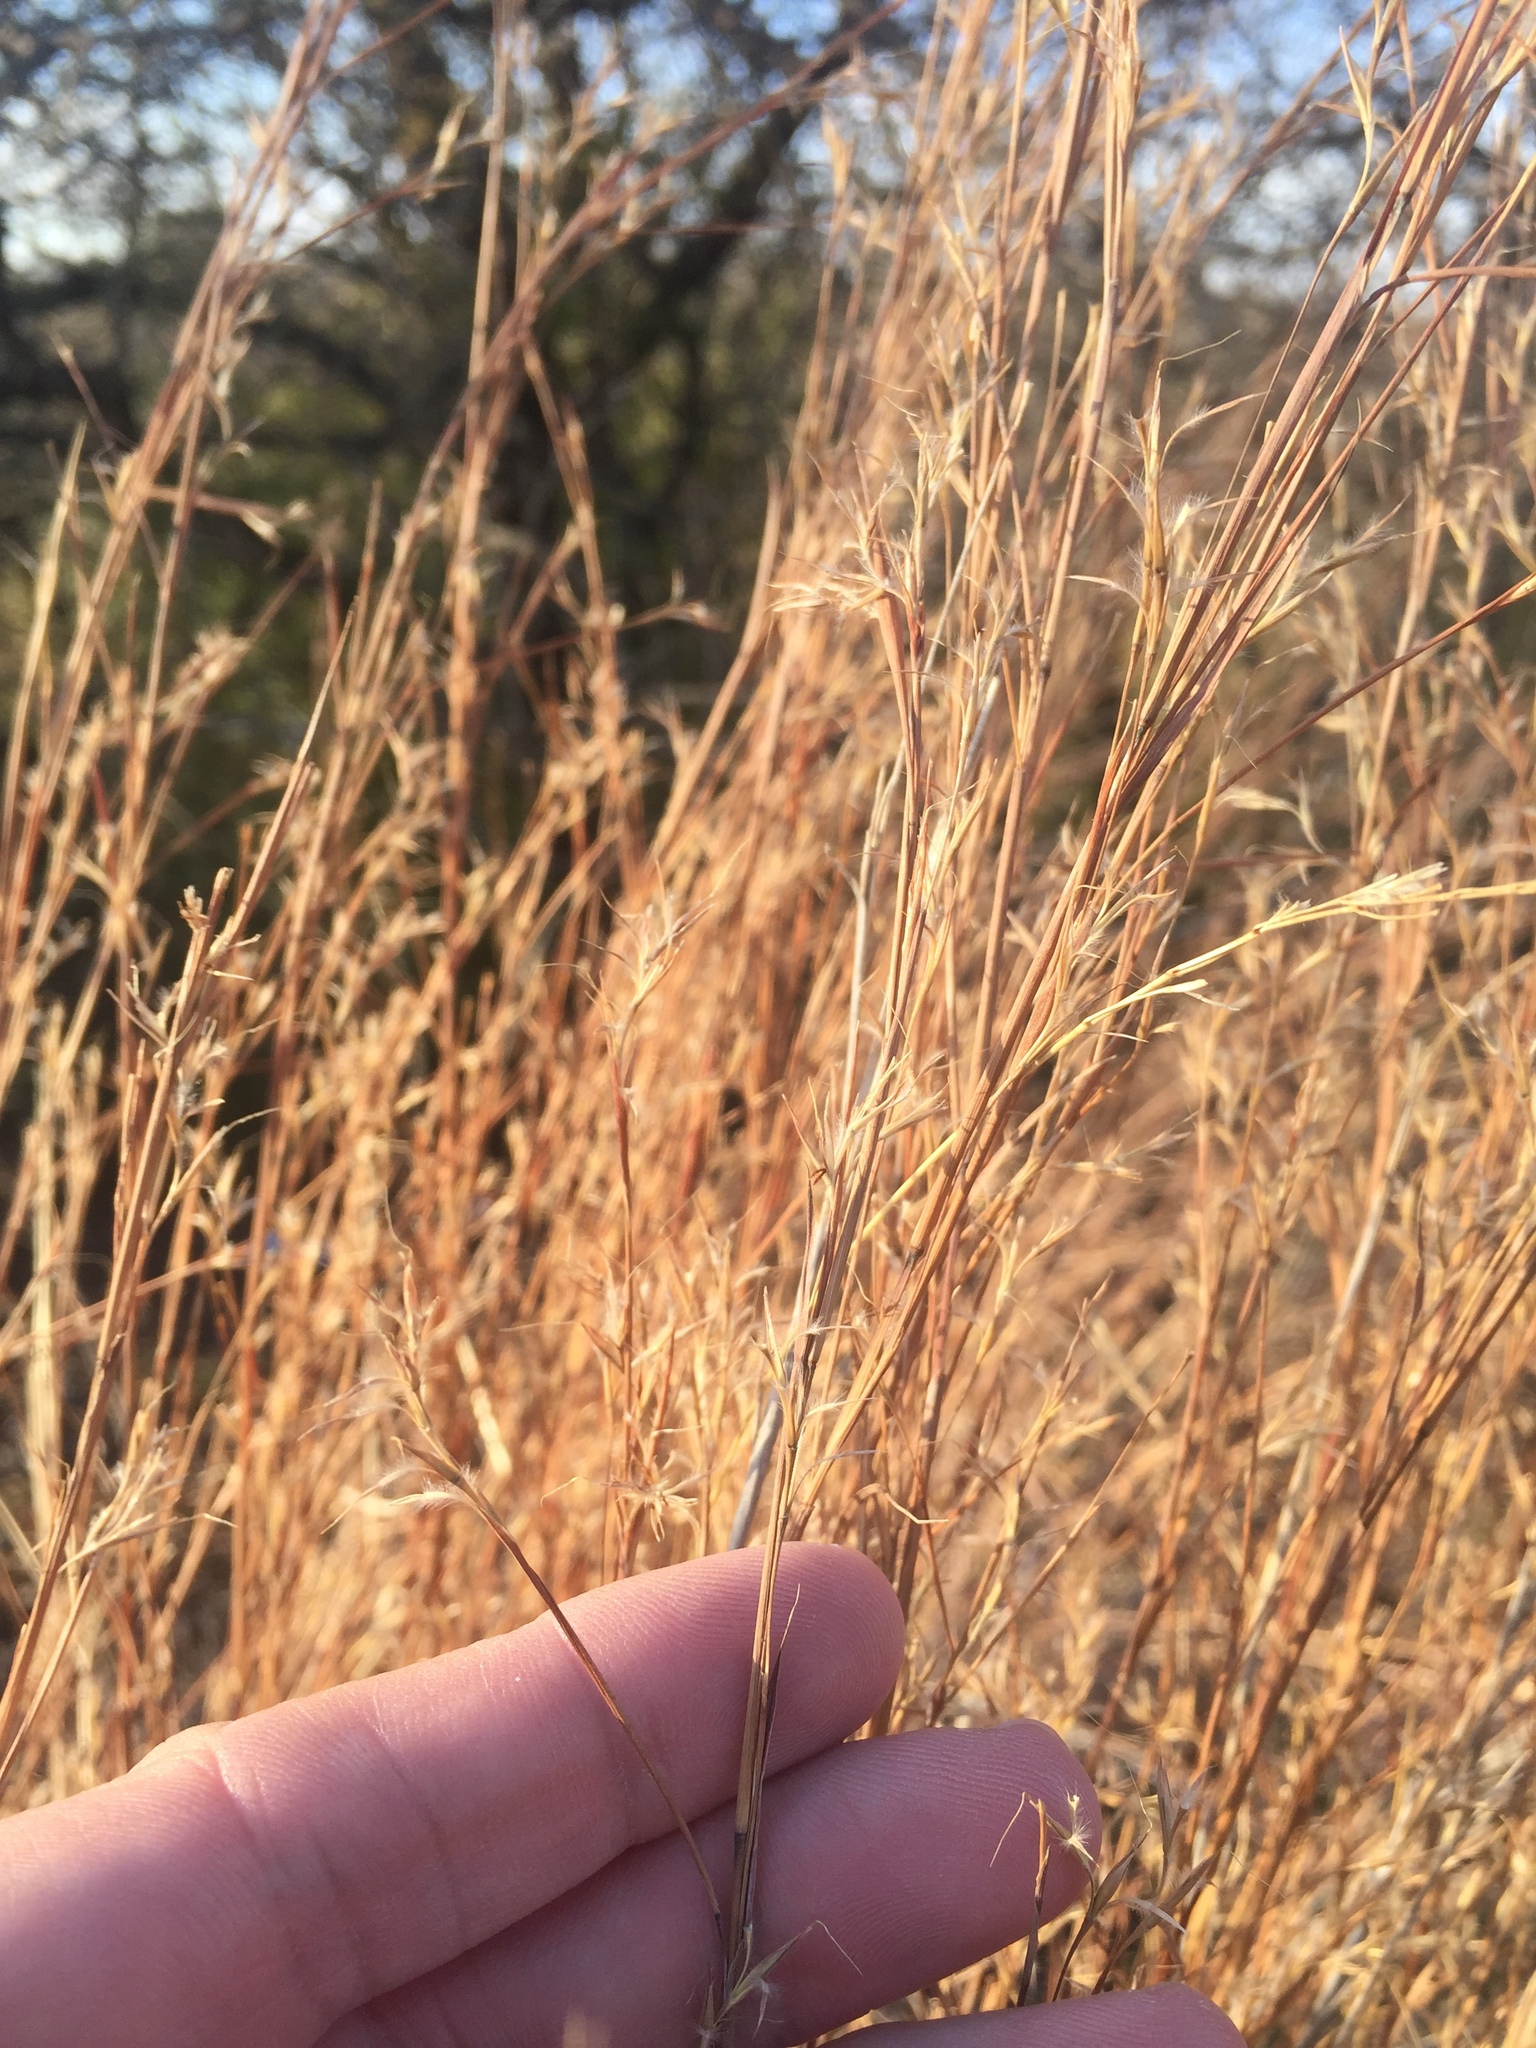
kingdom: Plantae
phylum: Tracheophyta
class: Liliopsida
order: Poales
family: Poaceae
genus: Schizachyrium
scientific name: Schizachyrium scoparium
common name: Little bluestem
